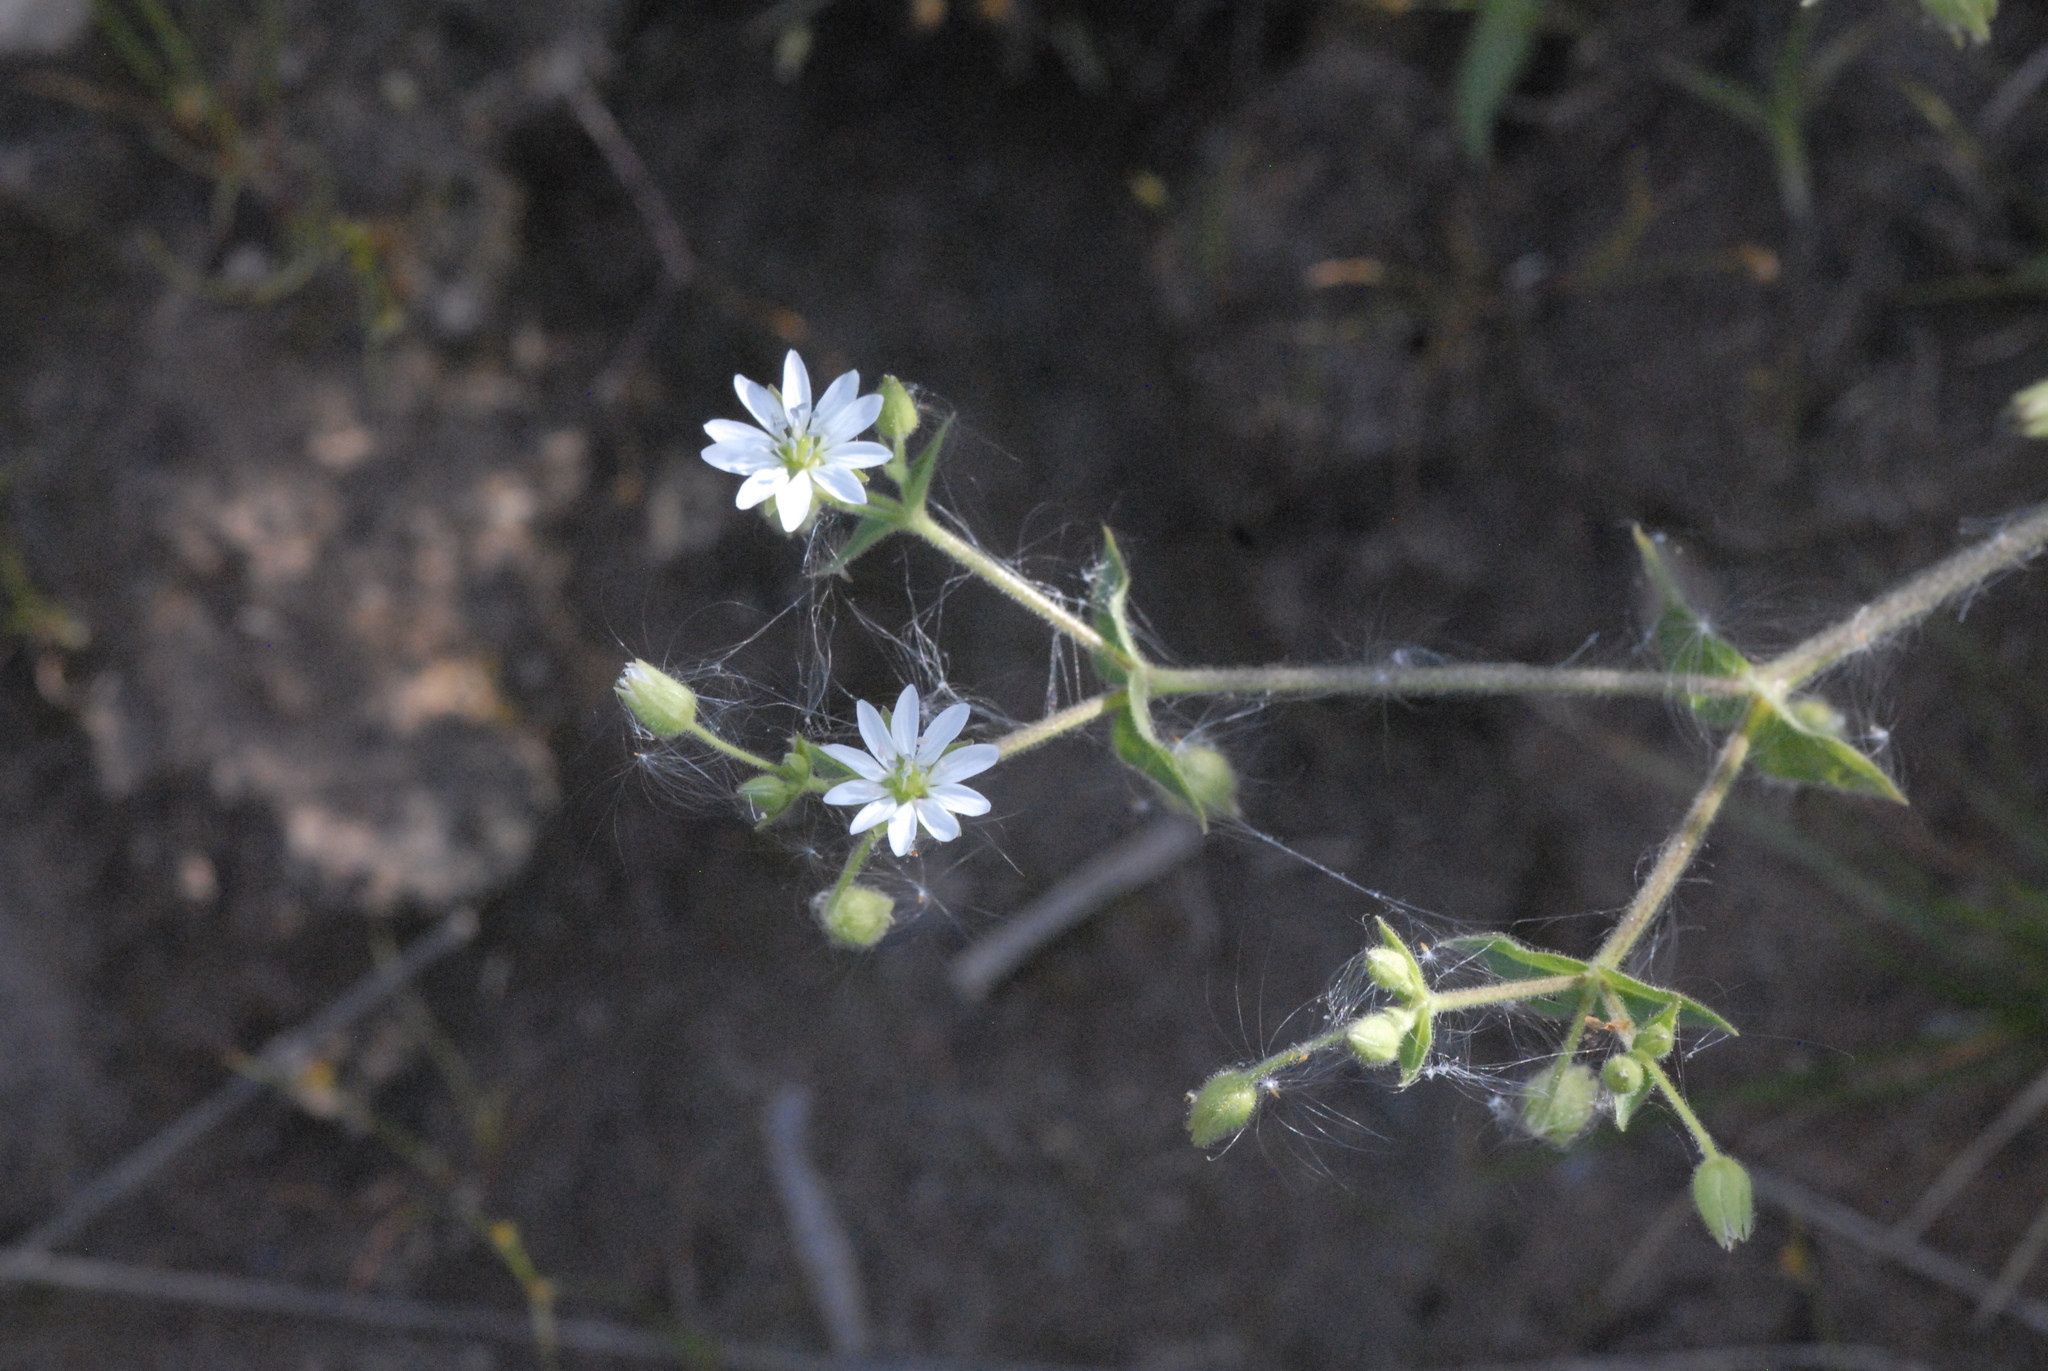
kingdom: Plantae
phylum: Tracheophyta
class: Magnoliopsida
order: Caryophyllales
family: Caryophyllaceae
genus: Stellaria
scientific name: Stellaria aquatica
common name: Water chickweed
